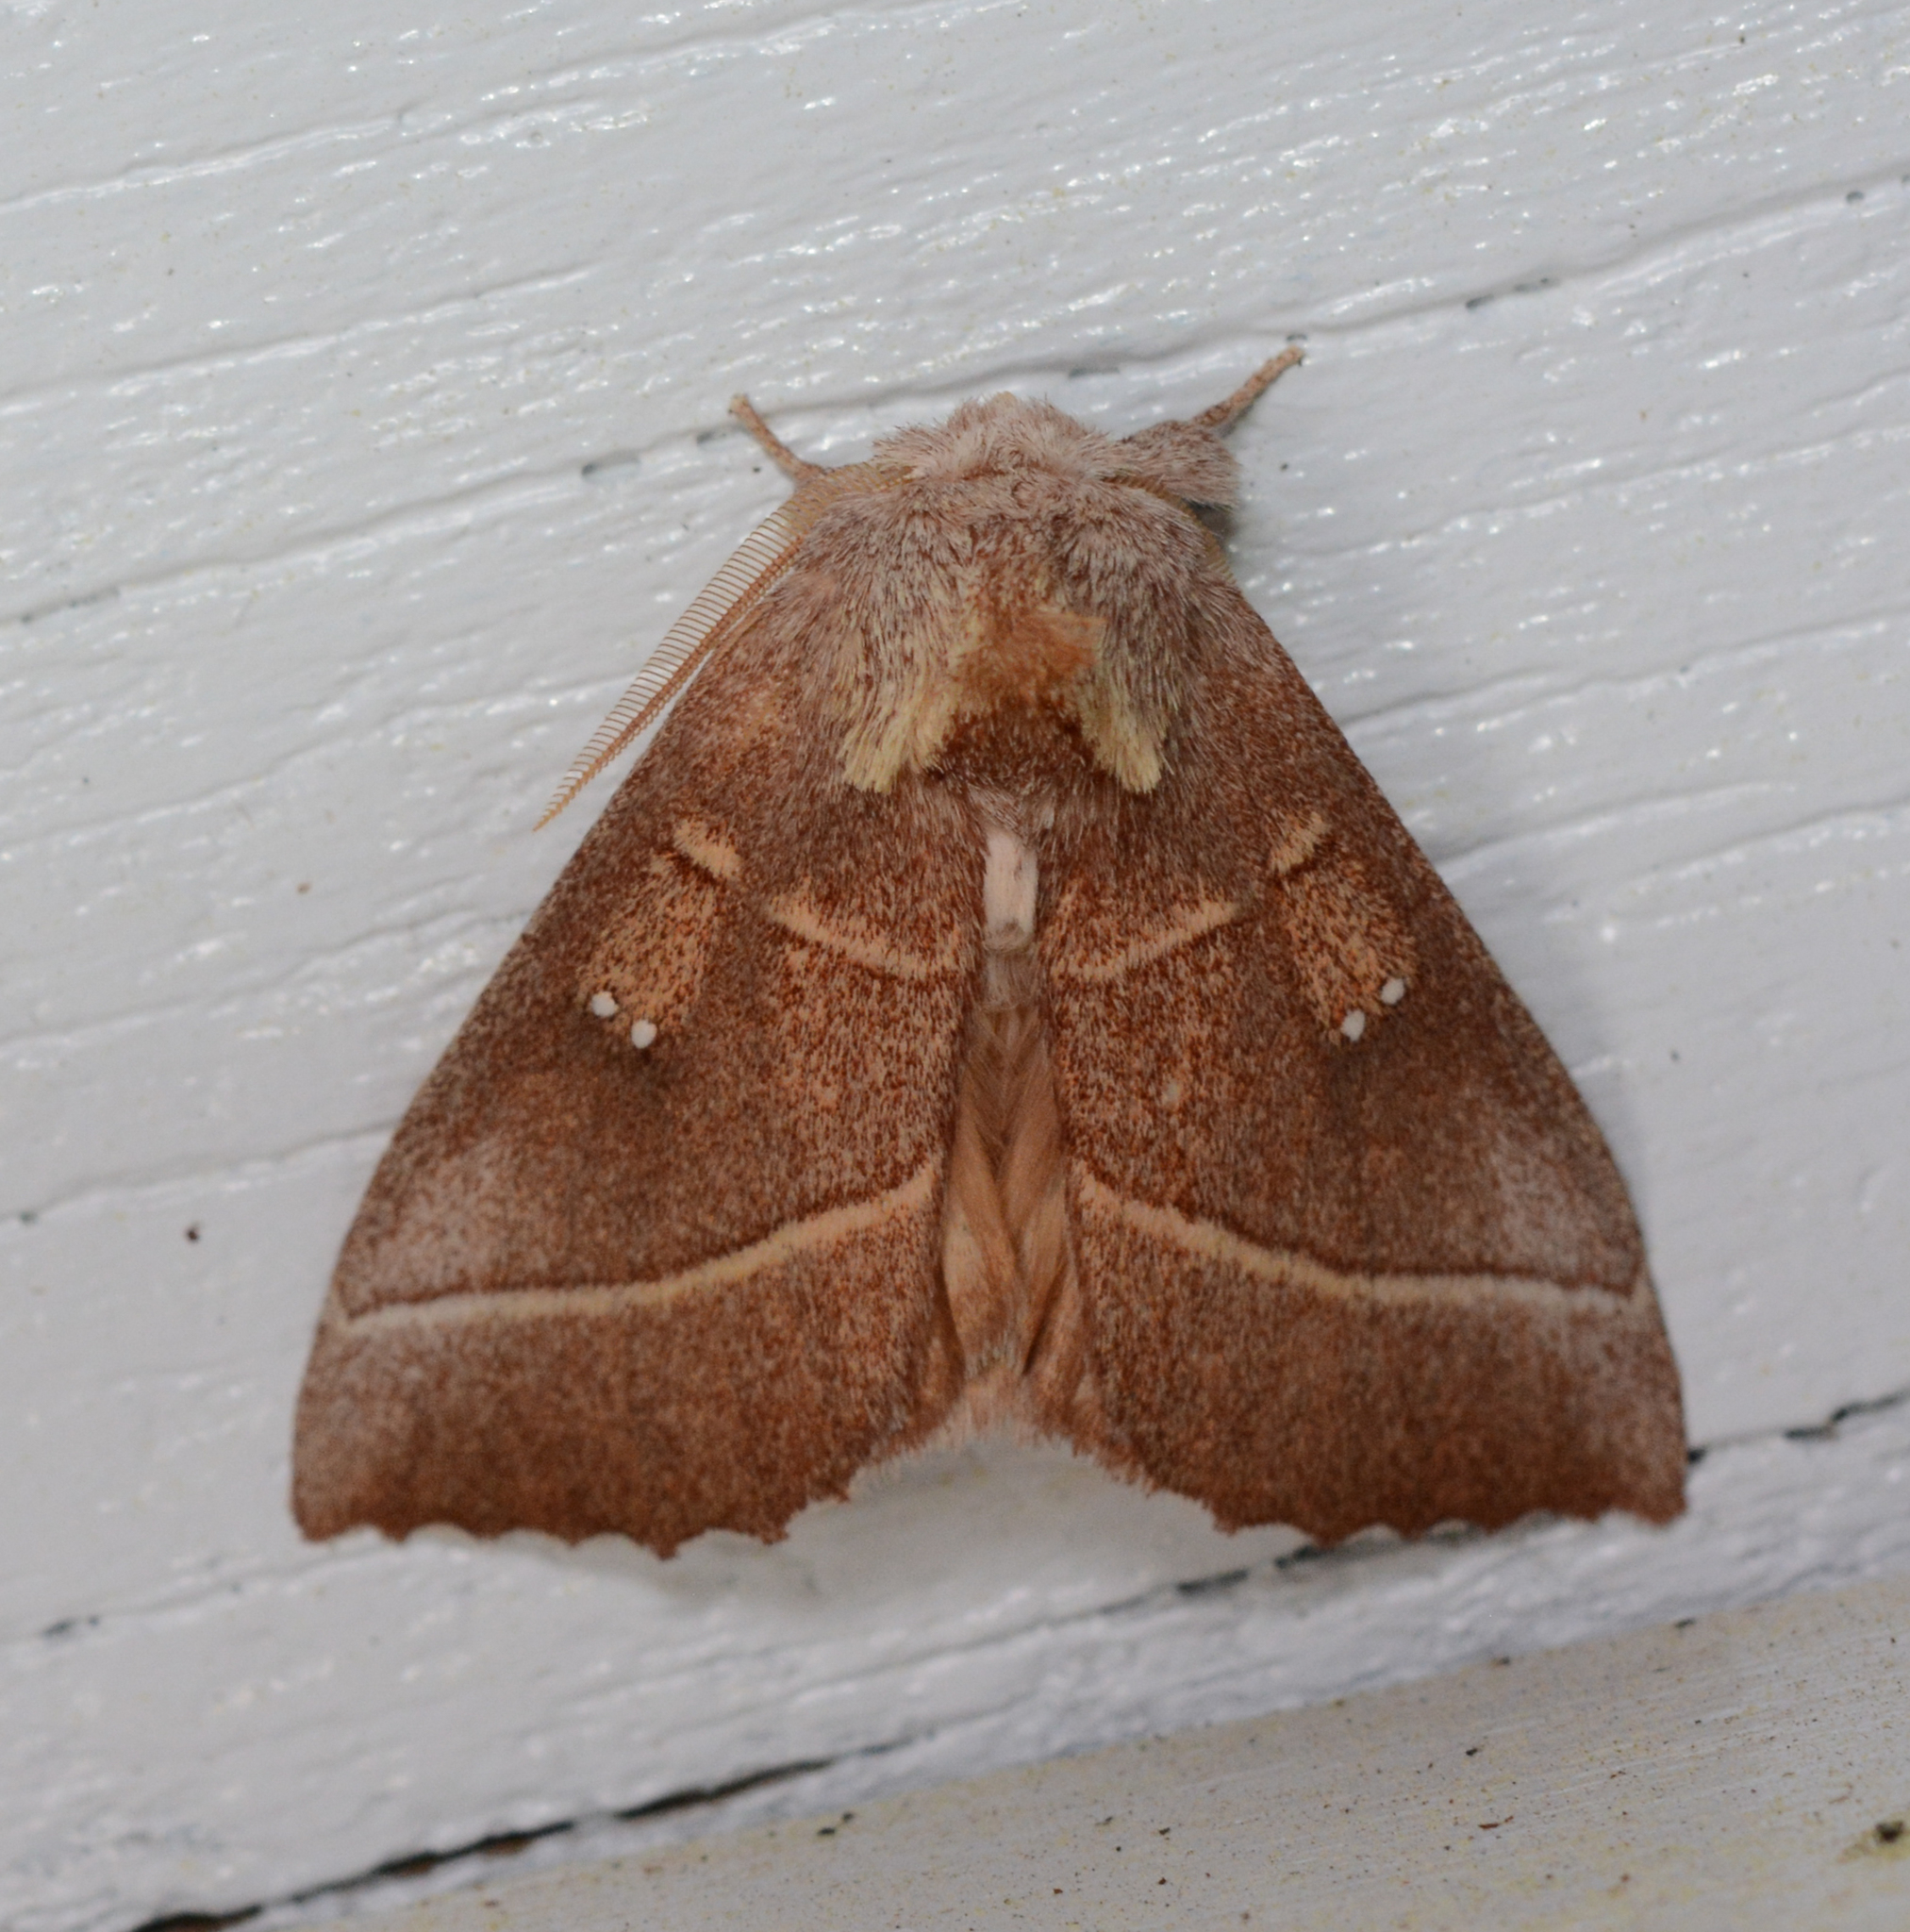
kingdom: Animalia
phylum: Arthropoda
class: Insecta
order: Lepidoptera
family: Notodontidae
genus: Nadata
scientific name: Nadata gibbosa
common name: White-dotted prominent
